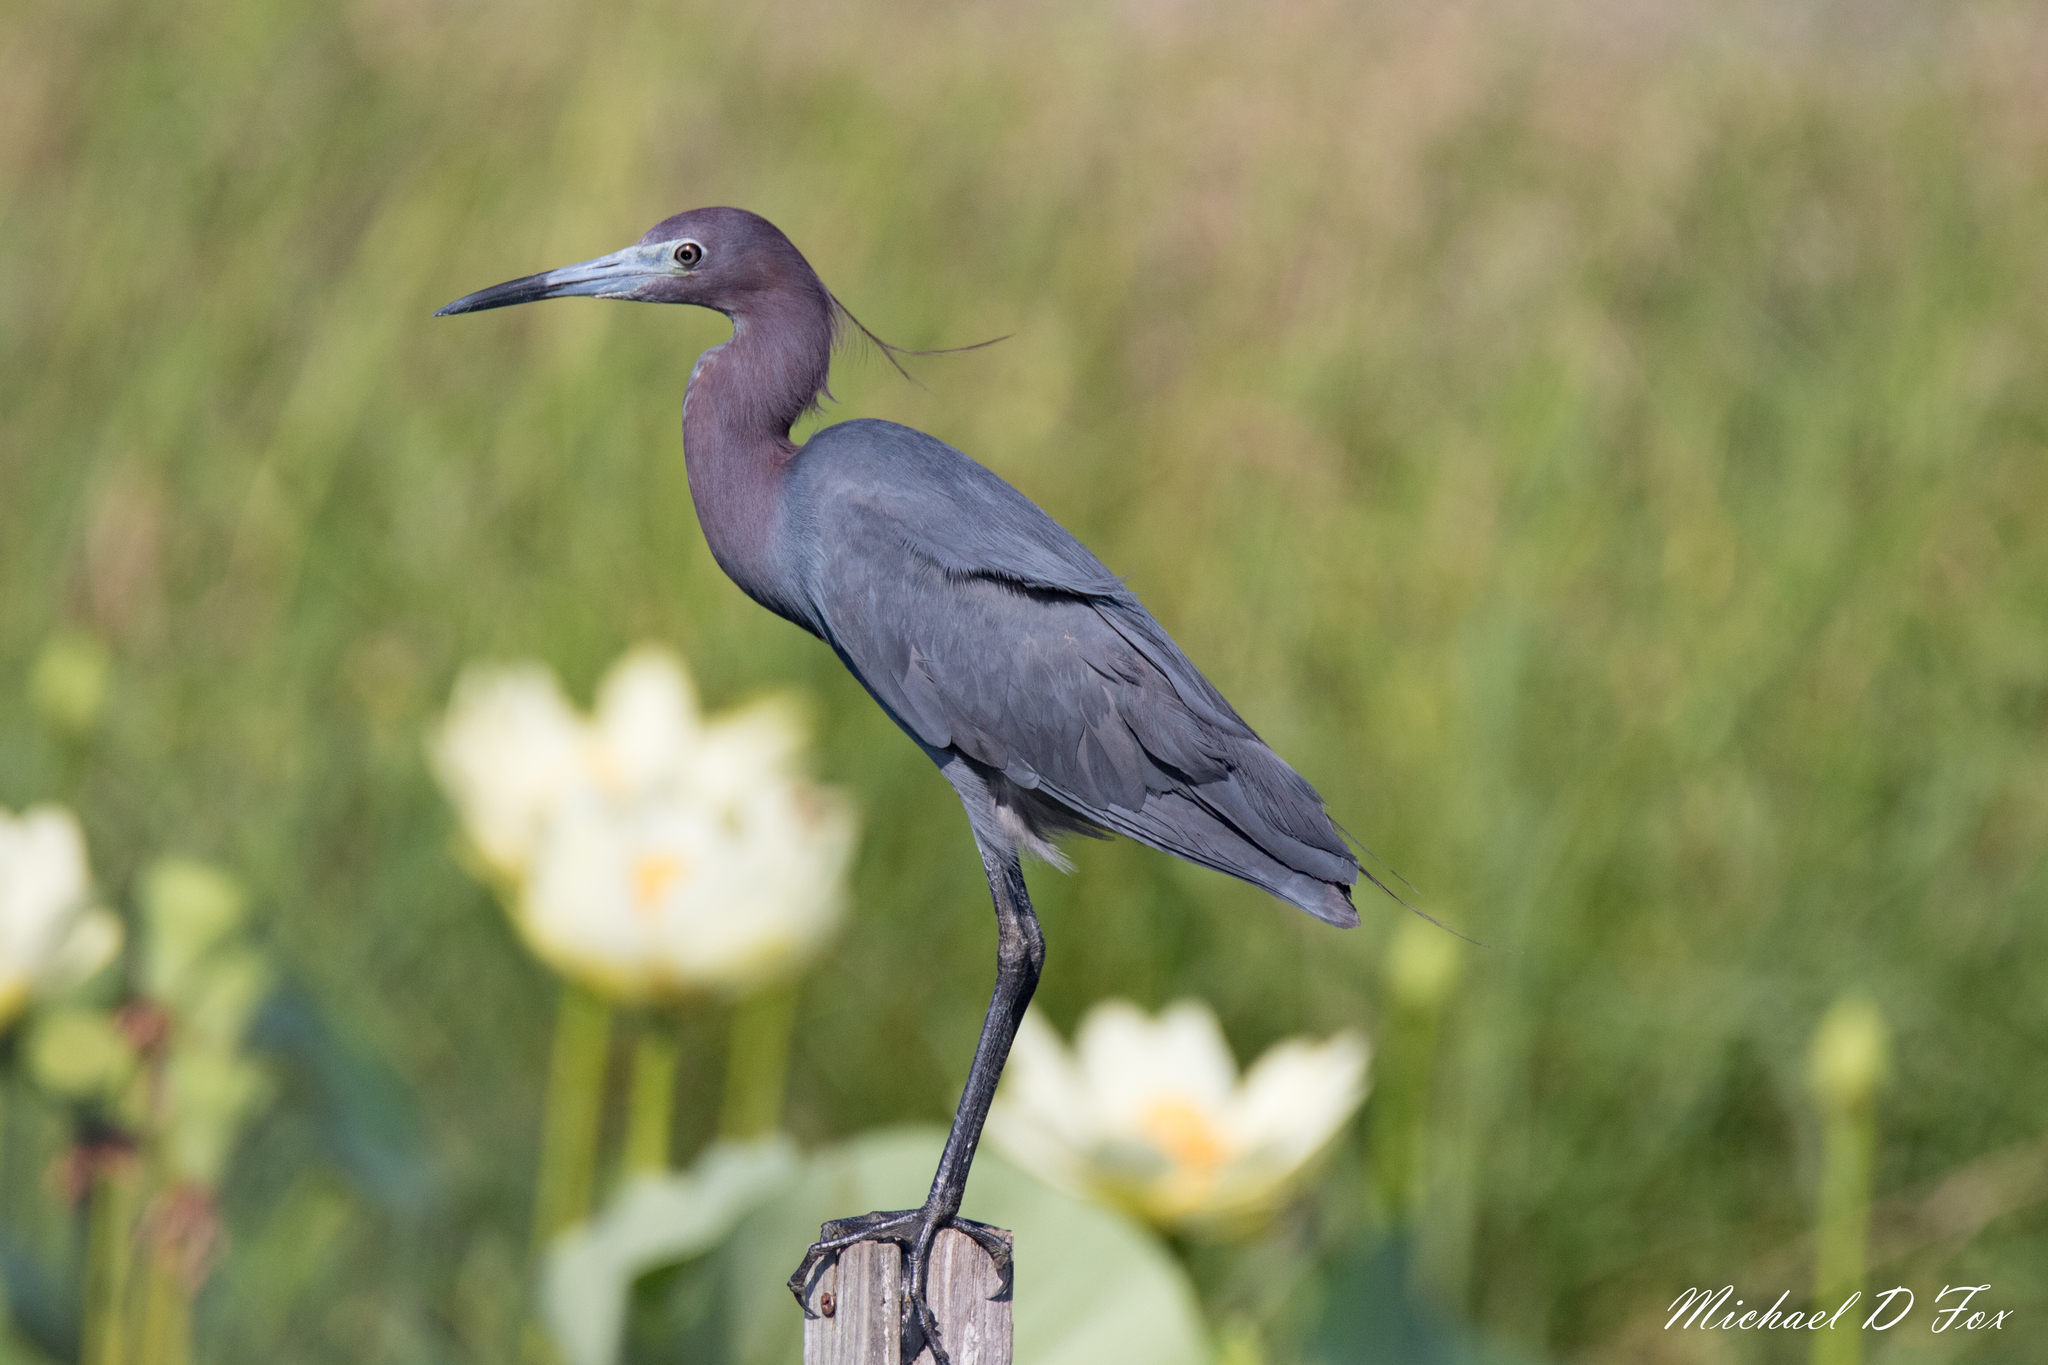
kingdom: Animalia
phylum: Chordata
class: Aves
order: Pelecaniformes
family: Ardeidae
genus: Egretta
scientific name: Egretta caerulea
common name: Little blue heron
